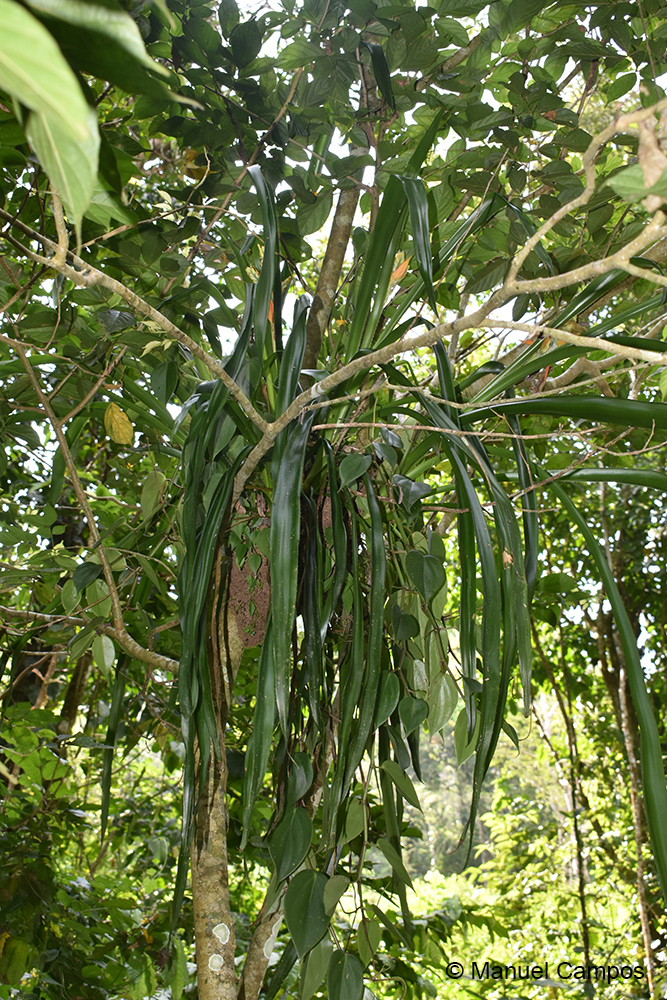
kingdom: Plantae
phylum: Tracheophyta
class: Liliopsida
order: Poales
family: Bromeliaceae
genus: Aechmea
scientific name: Aechmea tillandsioides
